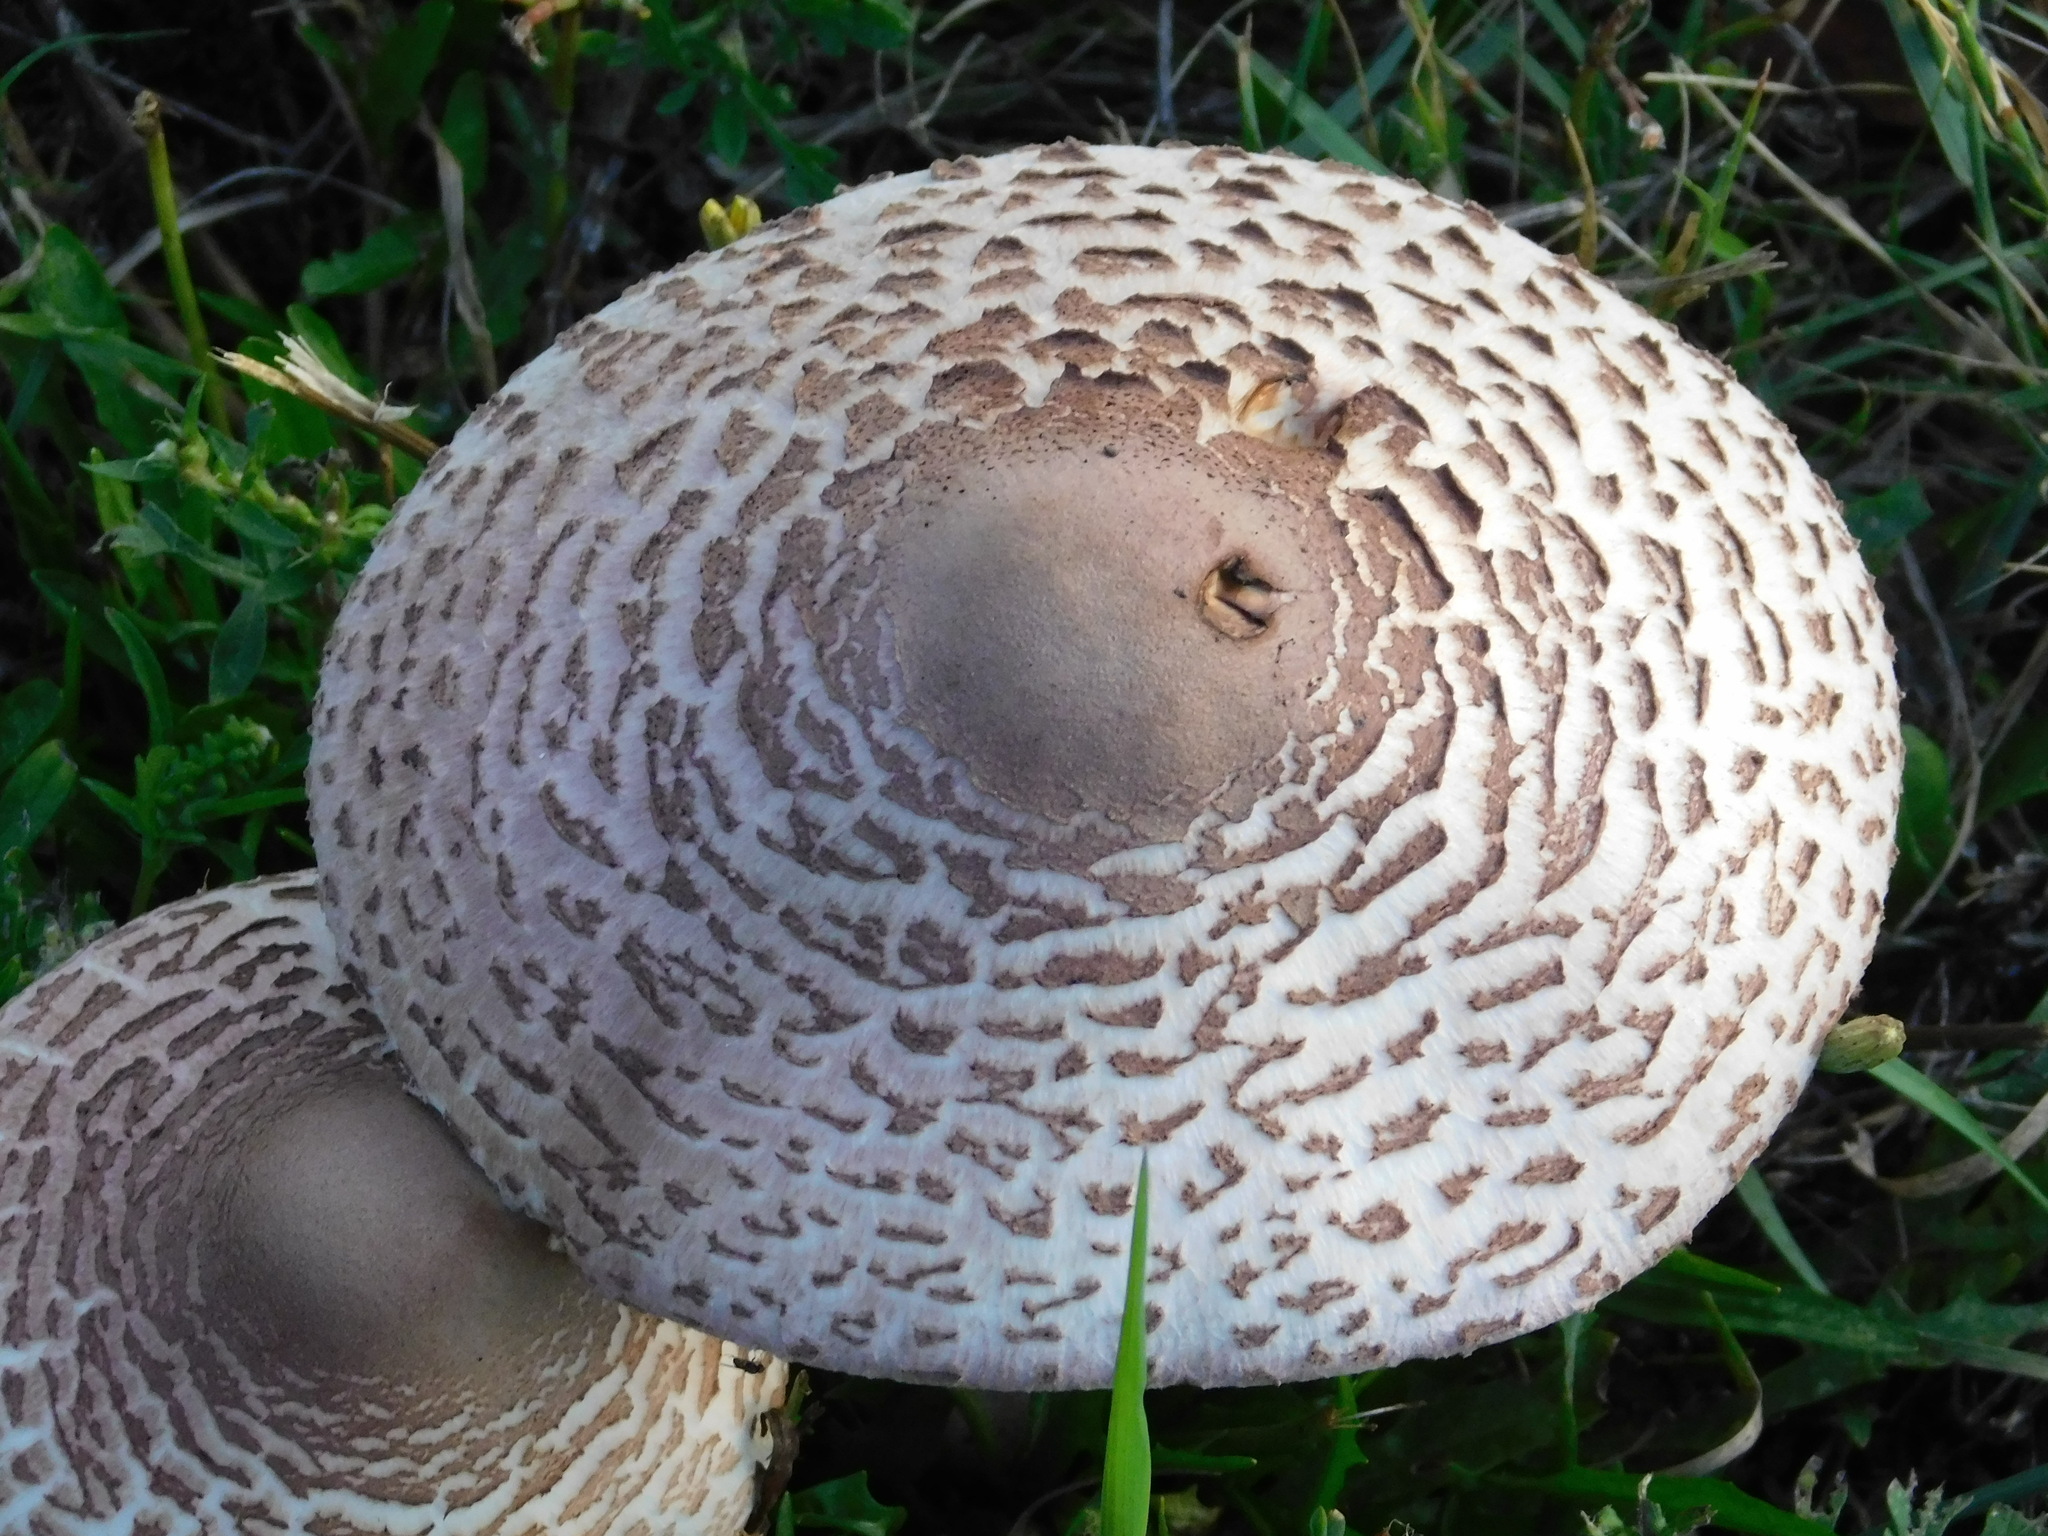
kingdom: Fungi
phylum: Basidiomycota
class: Agaricomycetes
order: Agaricales
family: Agaricaceae
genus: Leucoagaricus
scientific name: Leucoagaricus americanus
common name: Reddening lepiota
